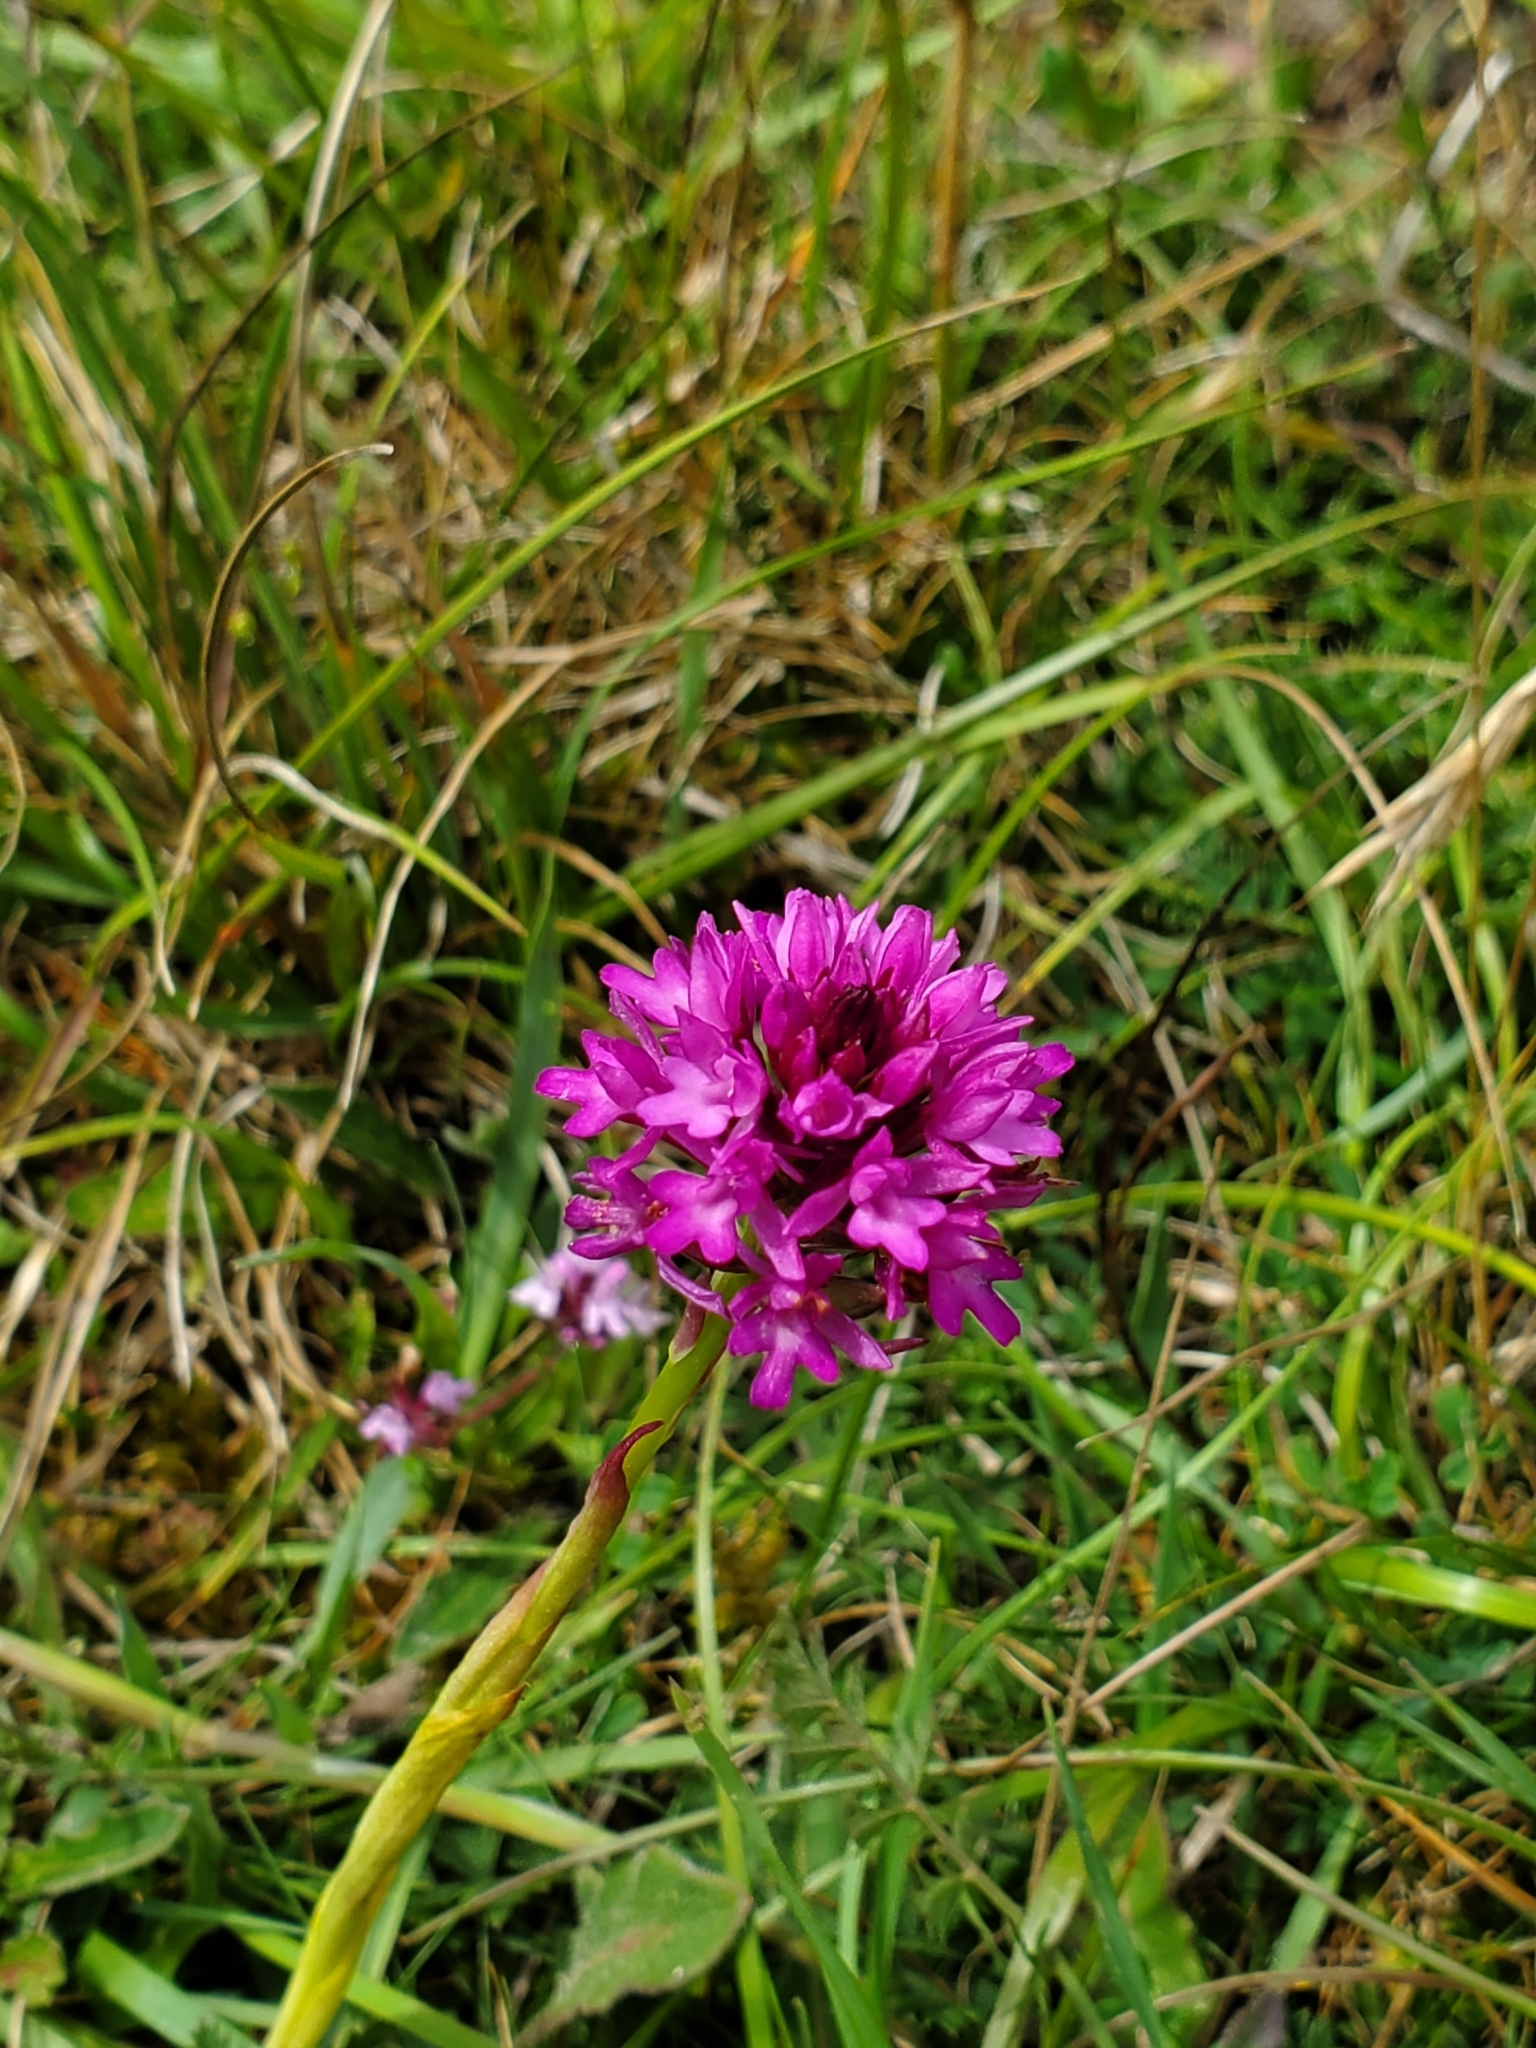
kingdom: Plantae
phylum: Tracheophyta
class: Liliopsida
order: Asparagales
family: Orchidaceae
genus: Anacamptis
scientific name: Anacamptis pyramidalis
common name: Pyramidal orchid
